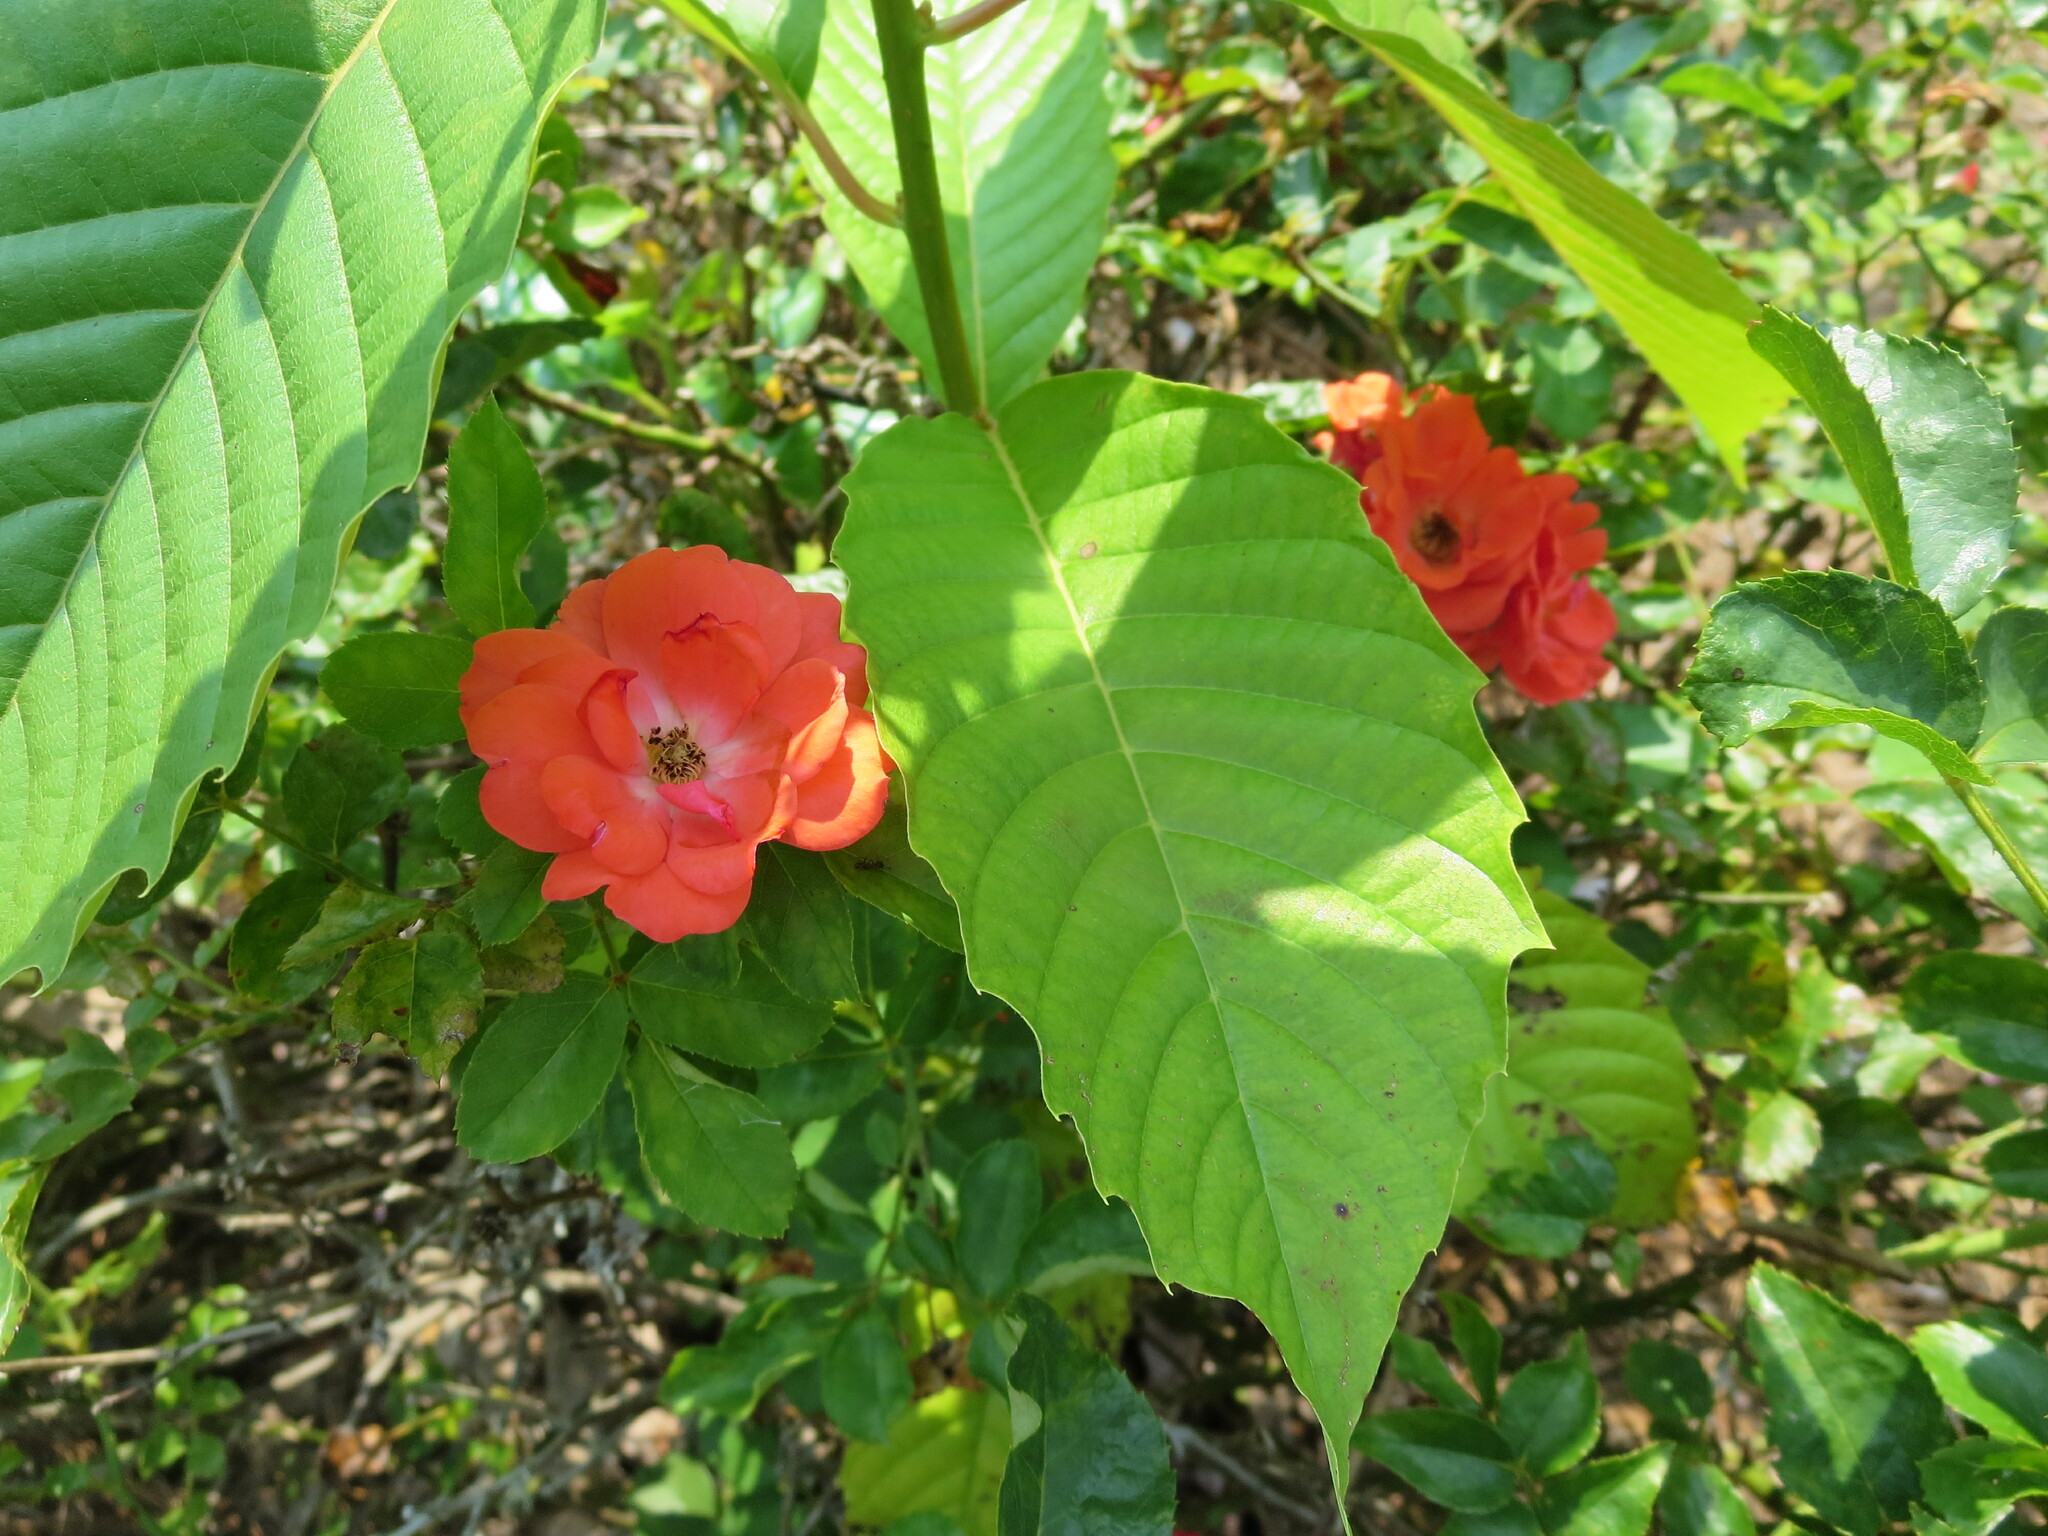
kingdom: Plantae
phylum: Tracheophyta
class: Magnoliopsida
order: Cornales
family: Nyssaceae
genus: Camptotheca
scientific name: Camptotheca acuminata
